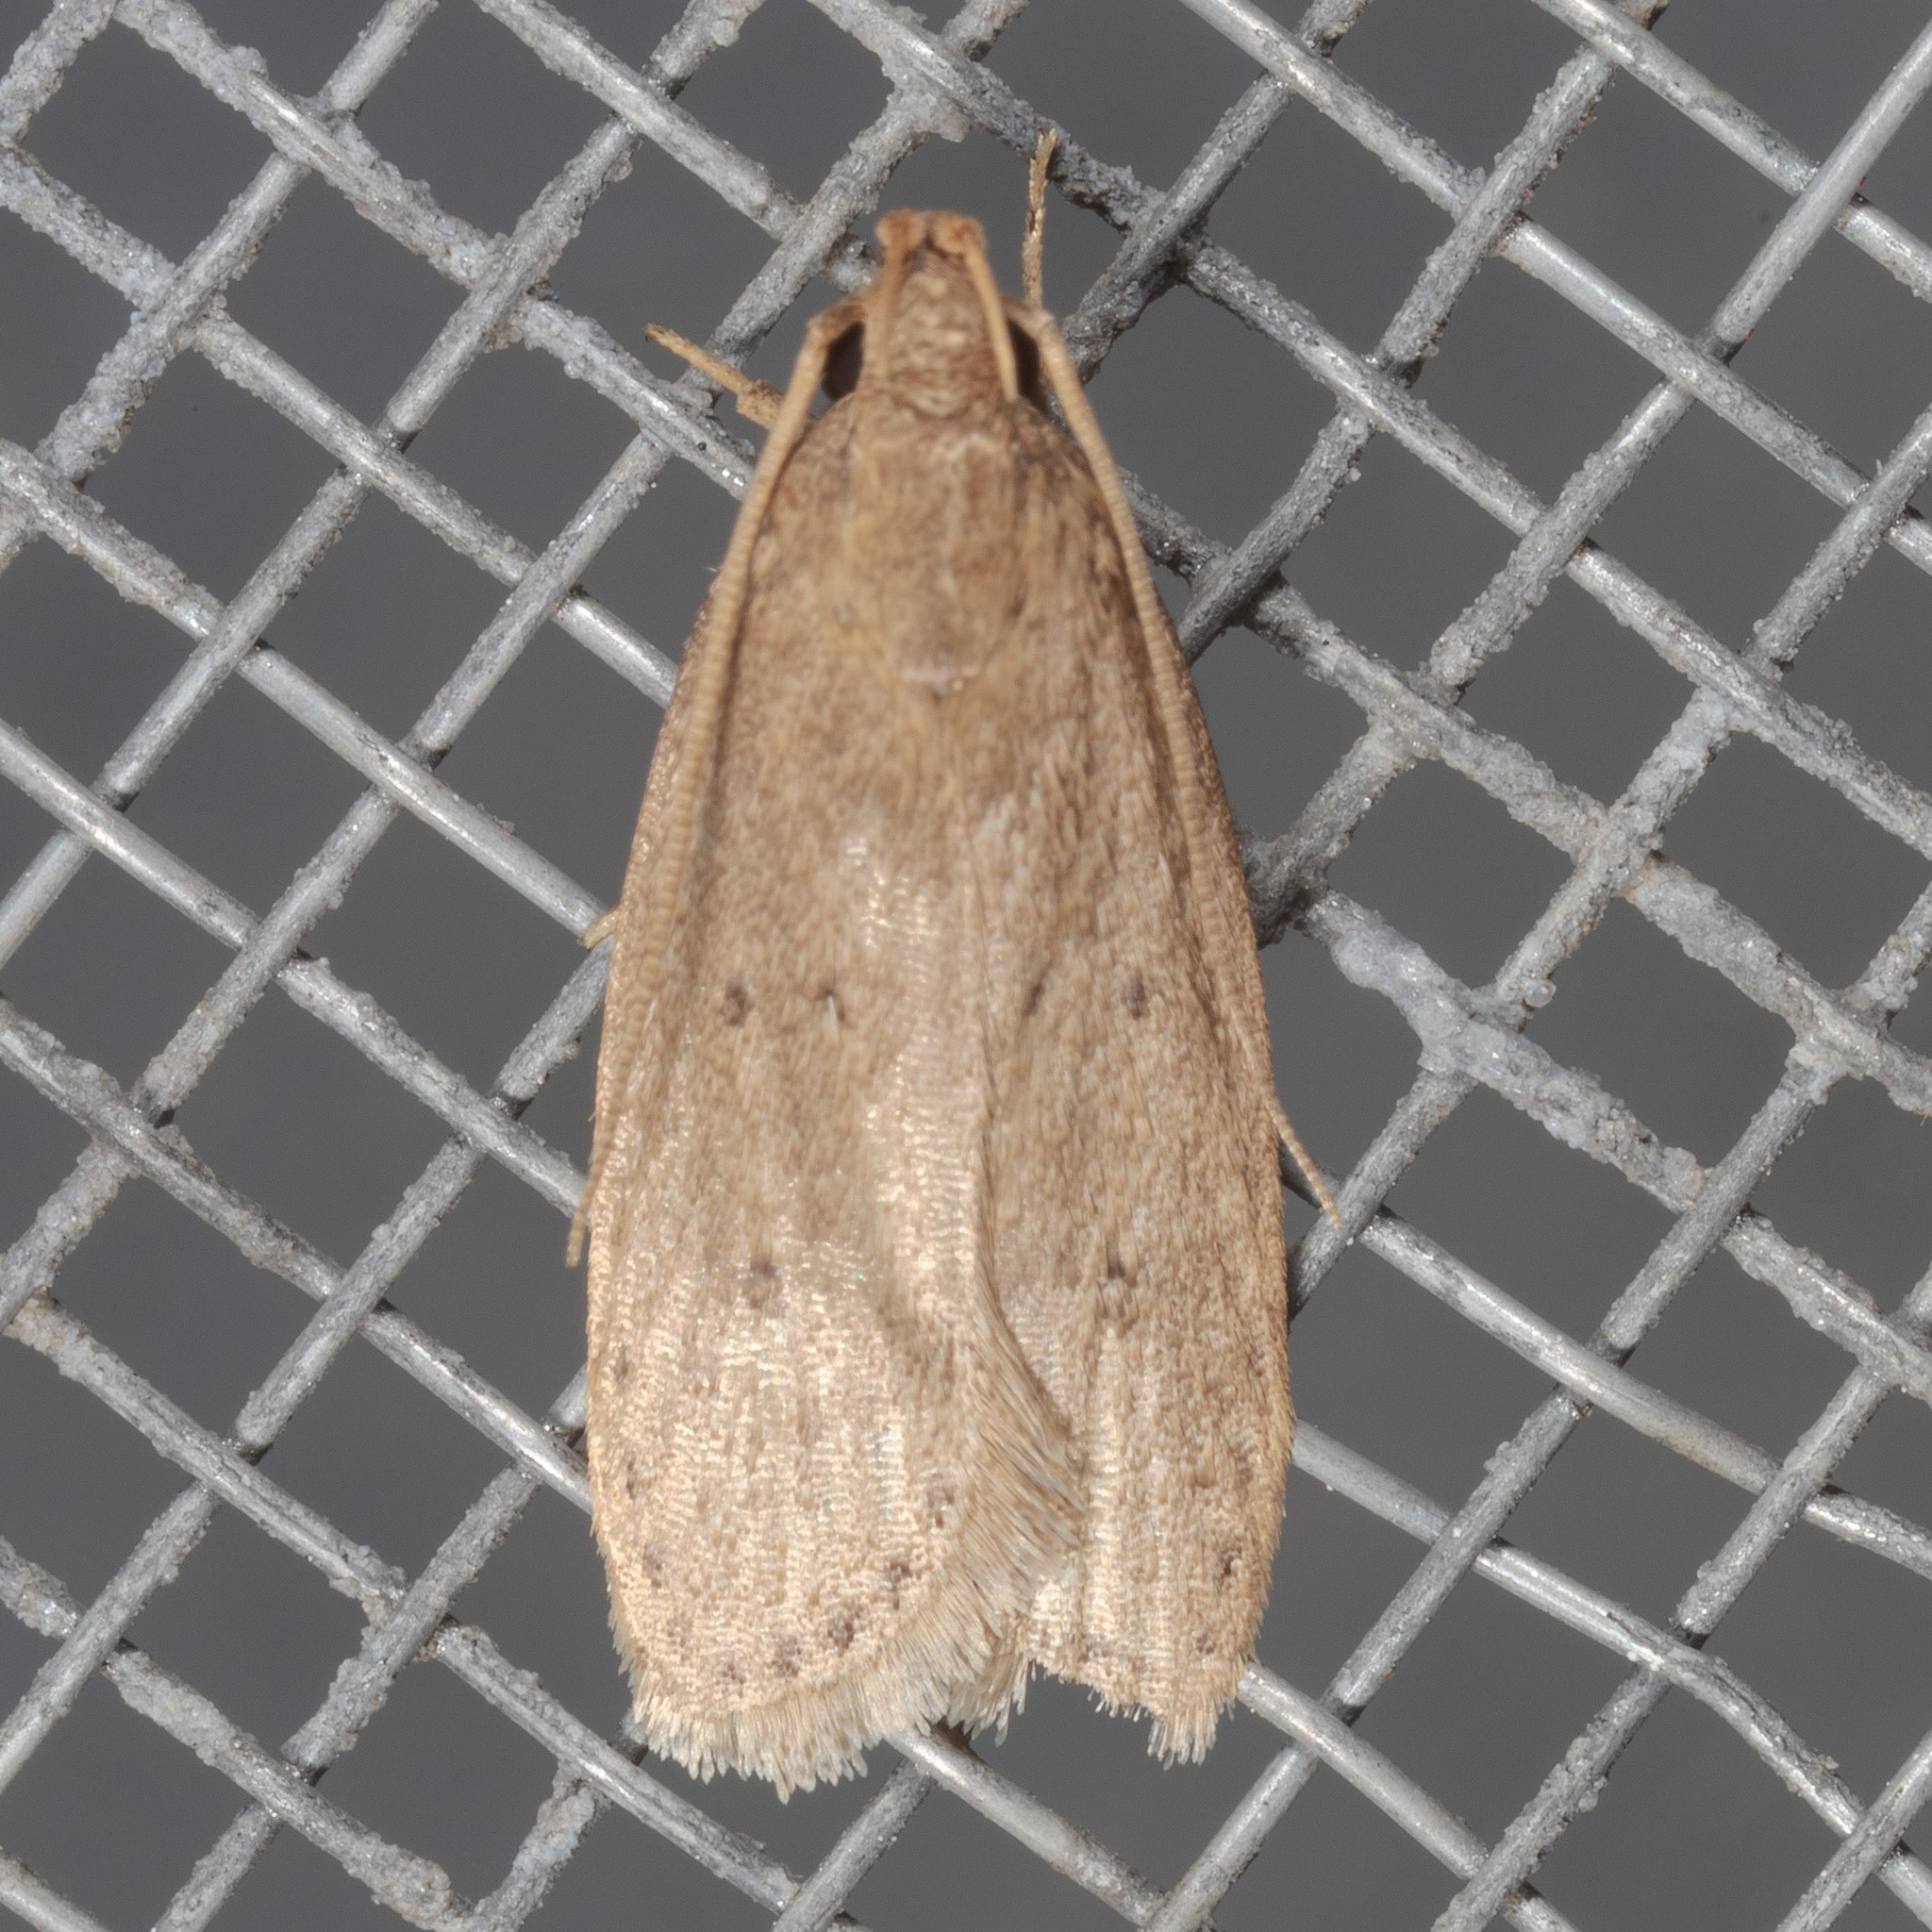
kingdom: Animalia
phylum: Arthropoda
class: Insecta
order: Lepidoptera
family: Autostichidae
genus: Autosticha
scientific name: Autosticha kyotensis
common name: Kyoto moth
